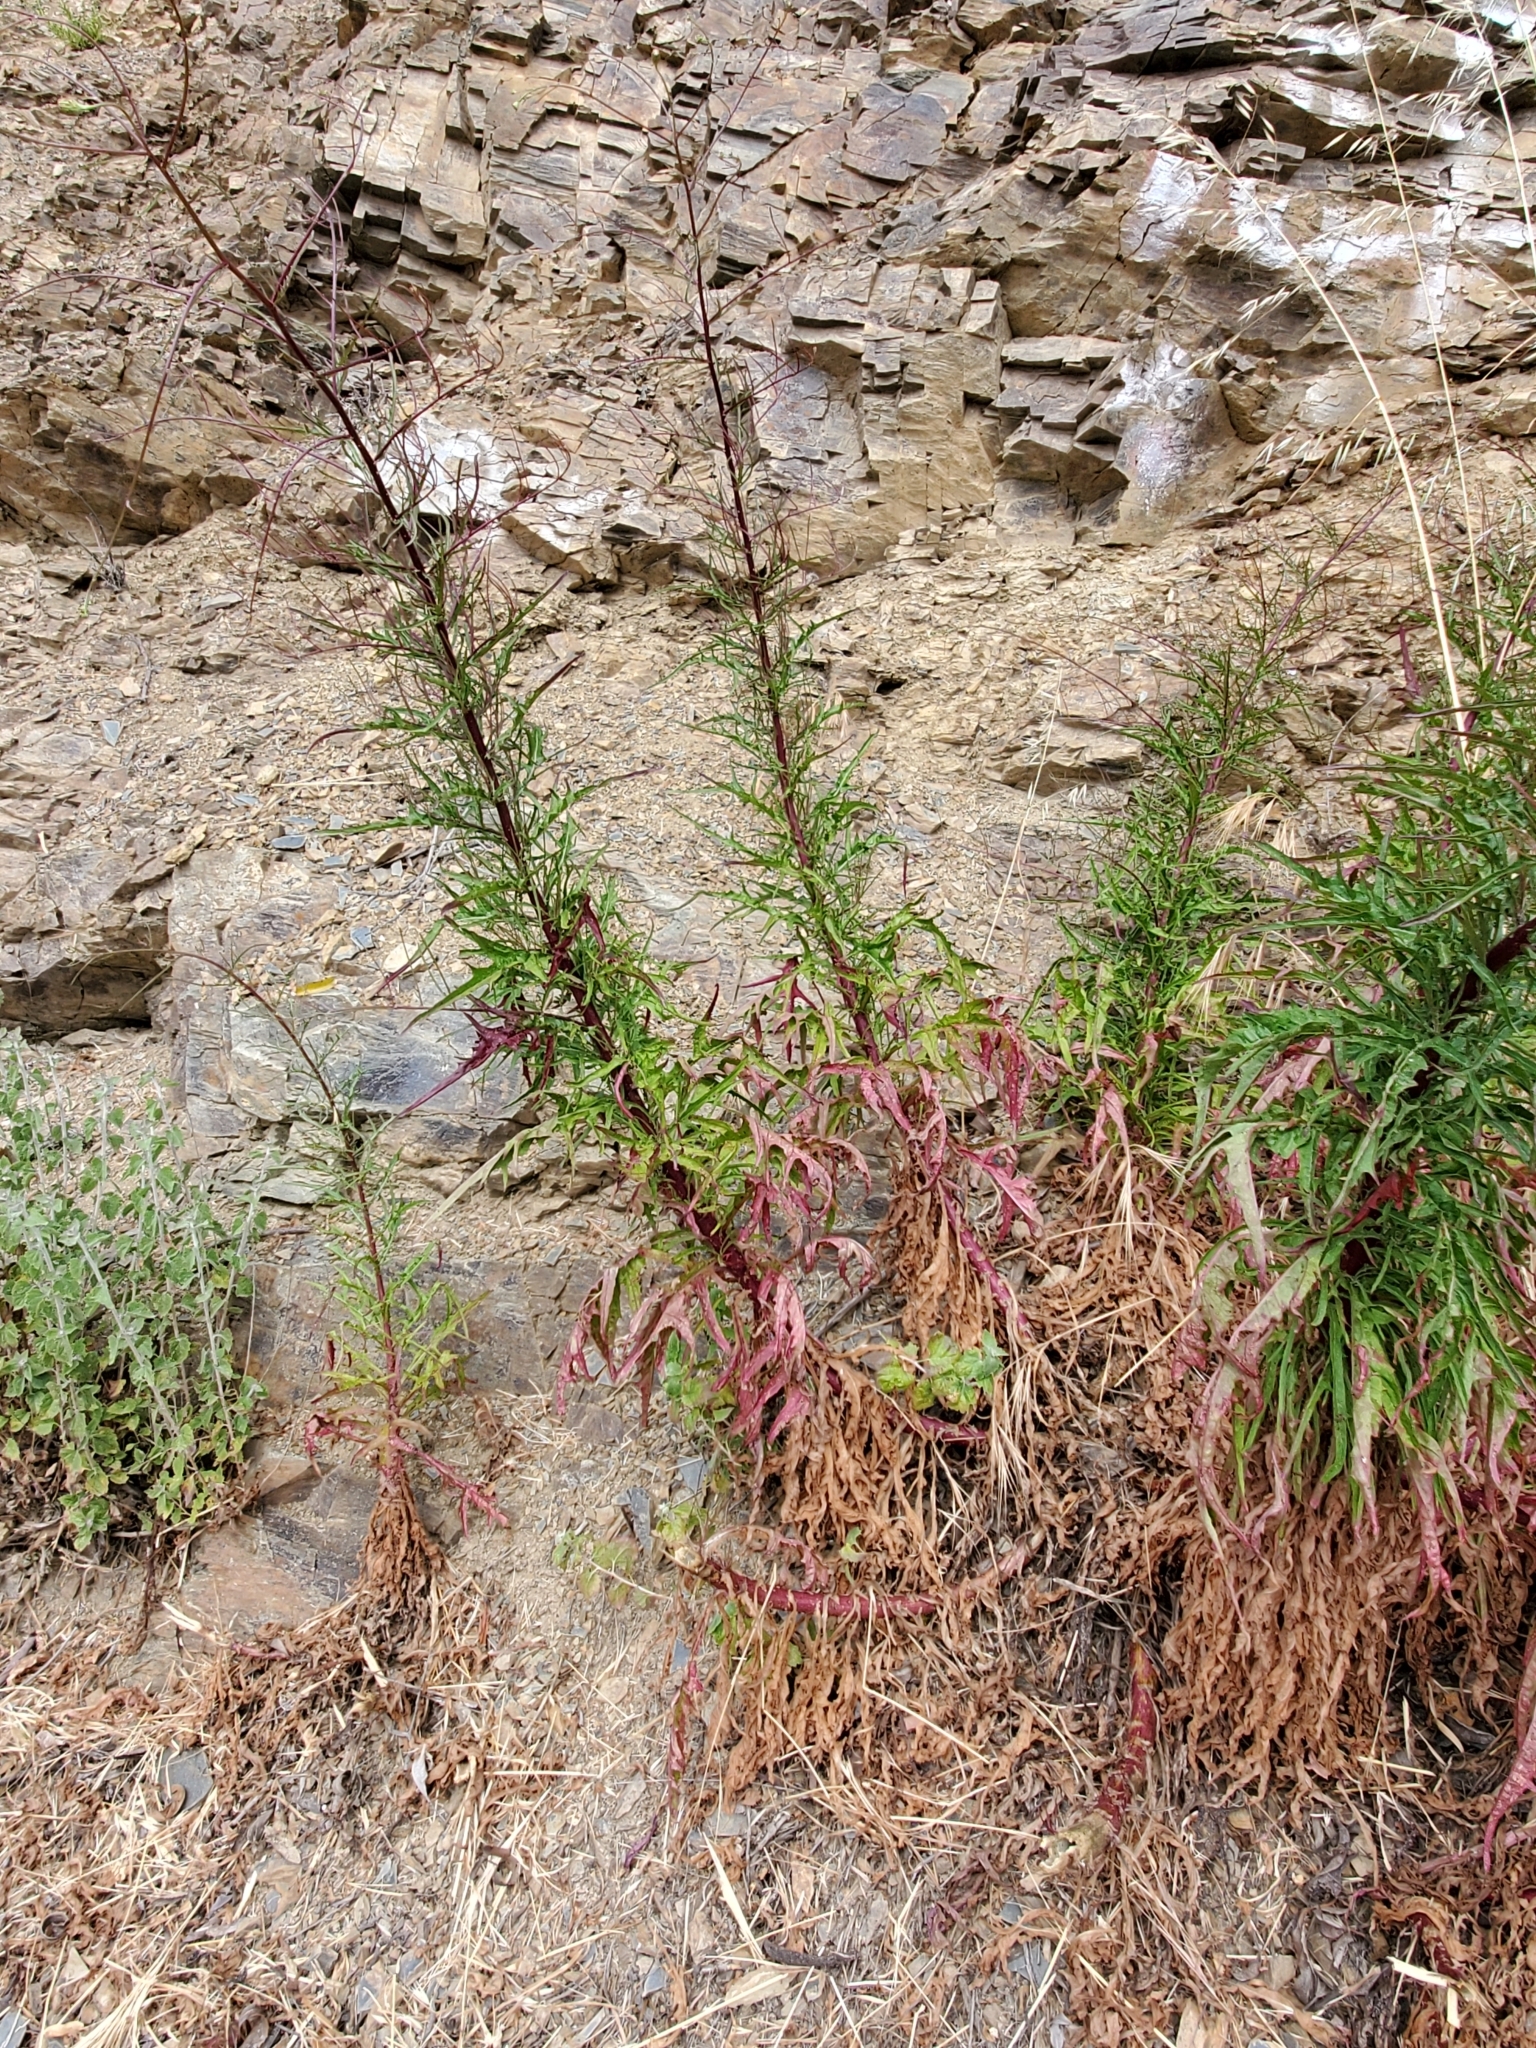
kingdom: Plantae
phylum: Tracheophyta
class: Magnoliopsida
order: Asterales
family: Asteraceae
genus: Malacothrix
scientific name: Malacothrix saxatilis
